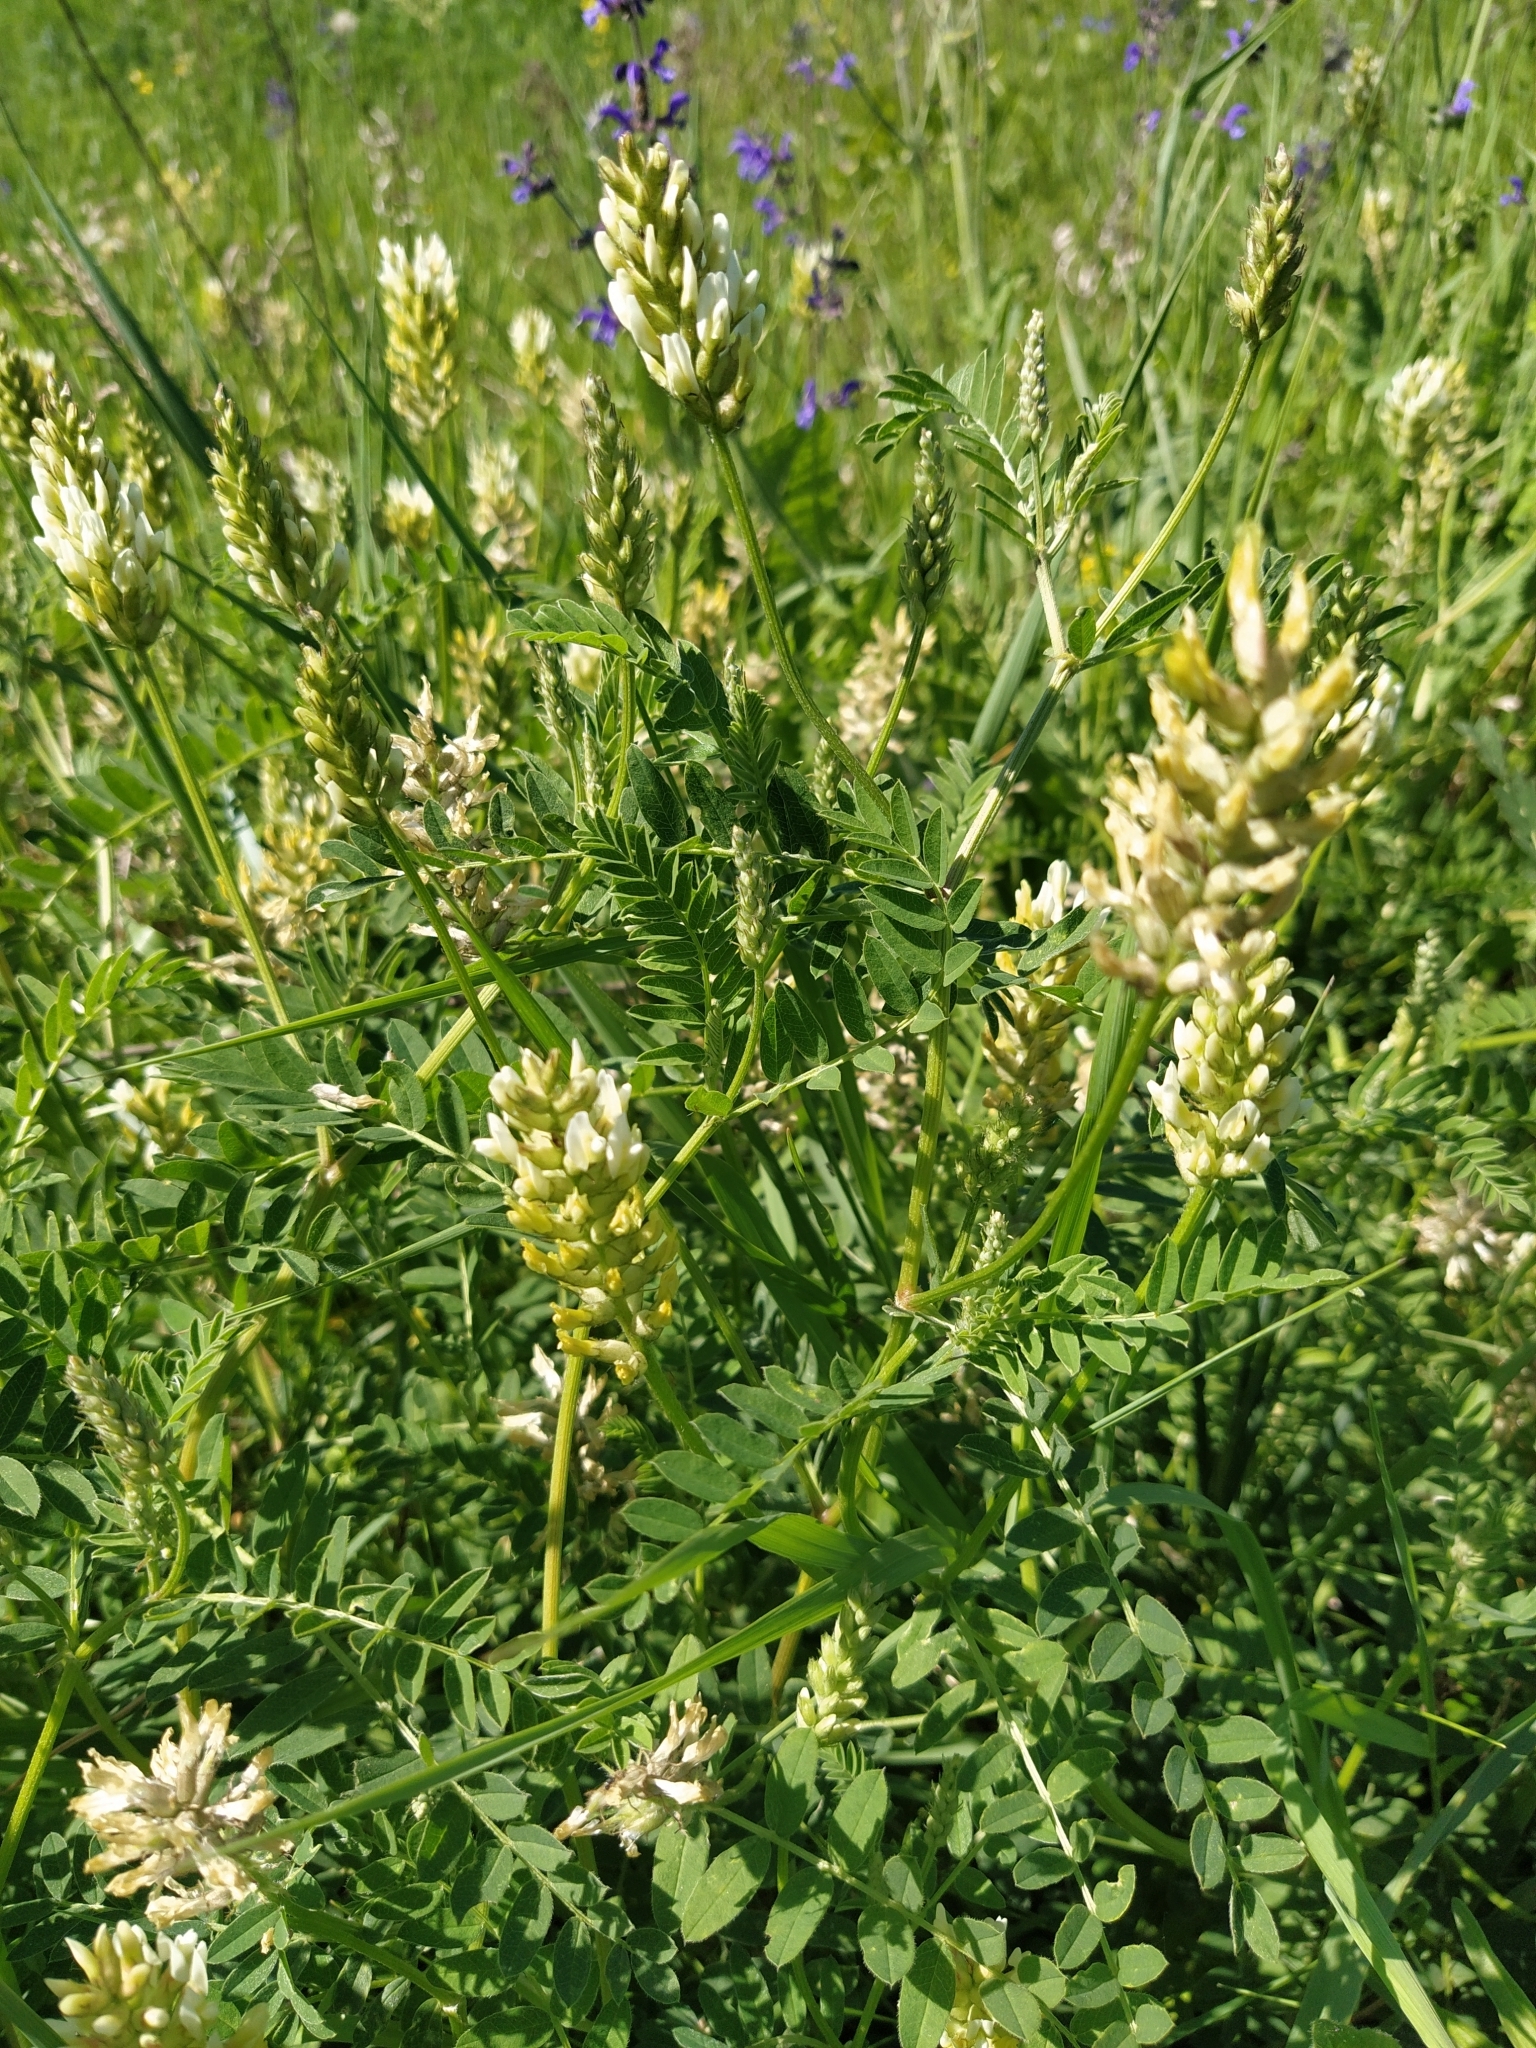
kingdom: Plantae
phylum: Tracheophyta
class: Magnoliopsida
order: Fabales
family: Fabaceae
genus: Astragalus
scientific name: Astragalus cicer
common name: Chick-pea milk-vetch
